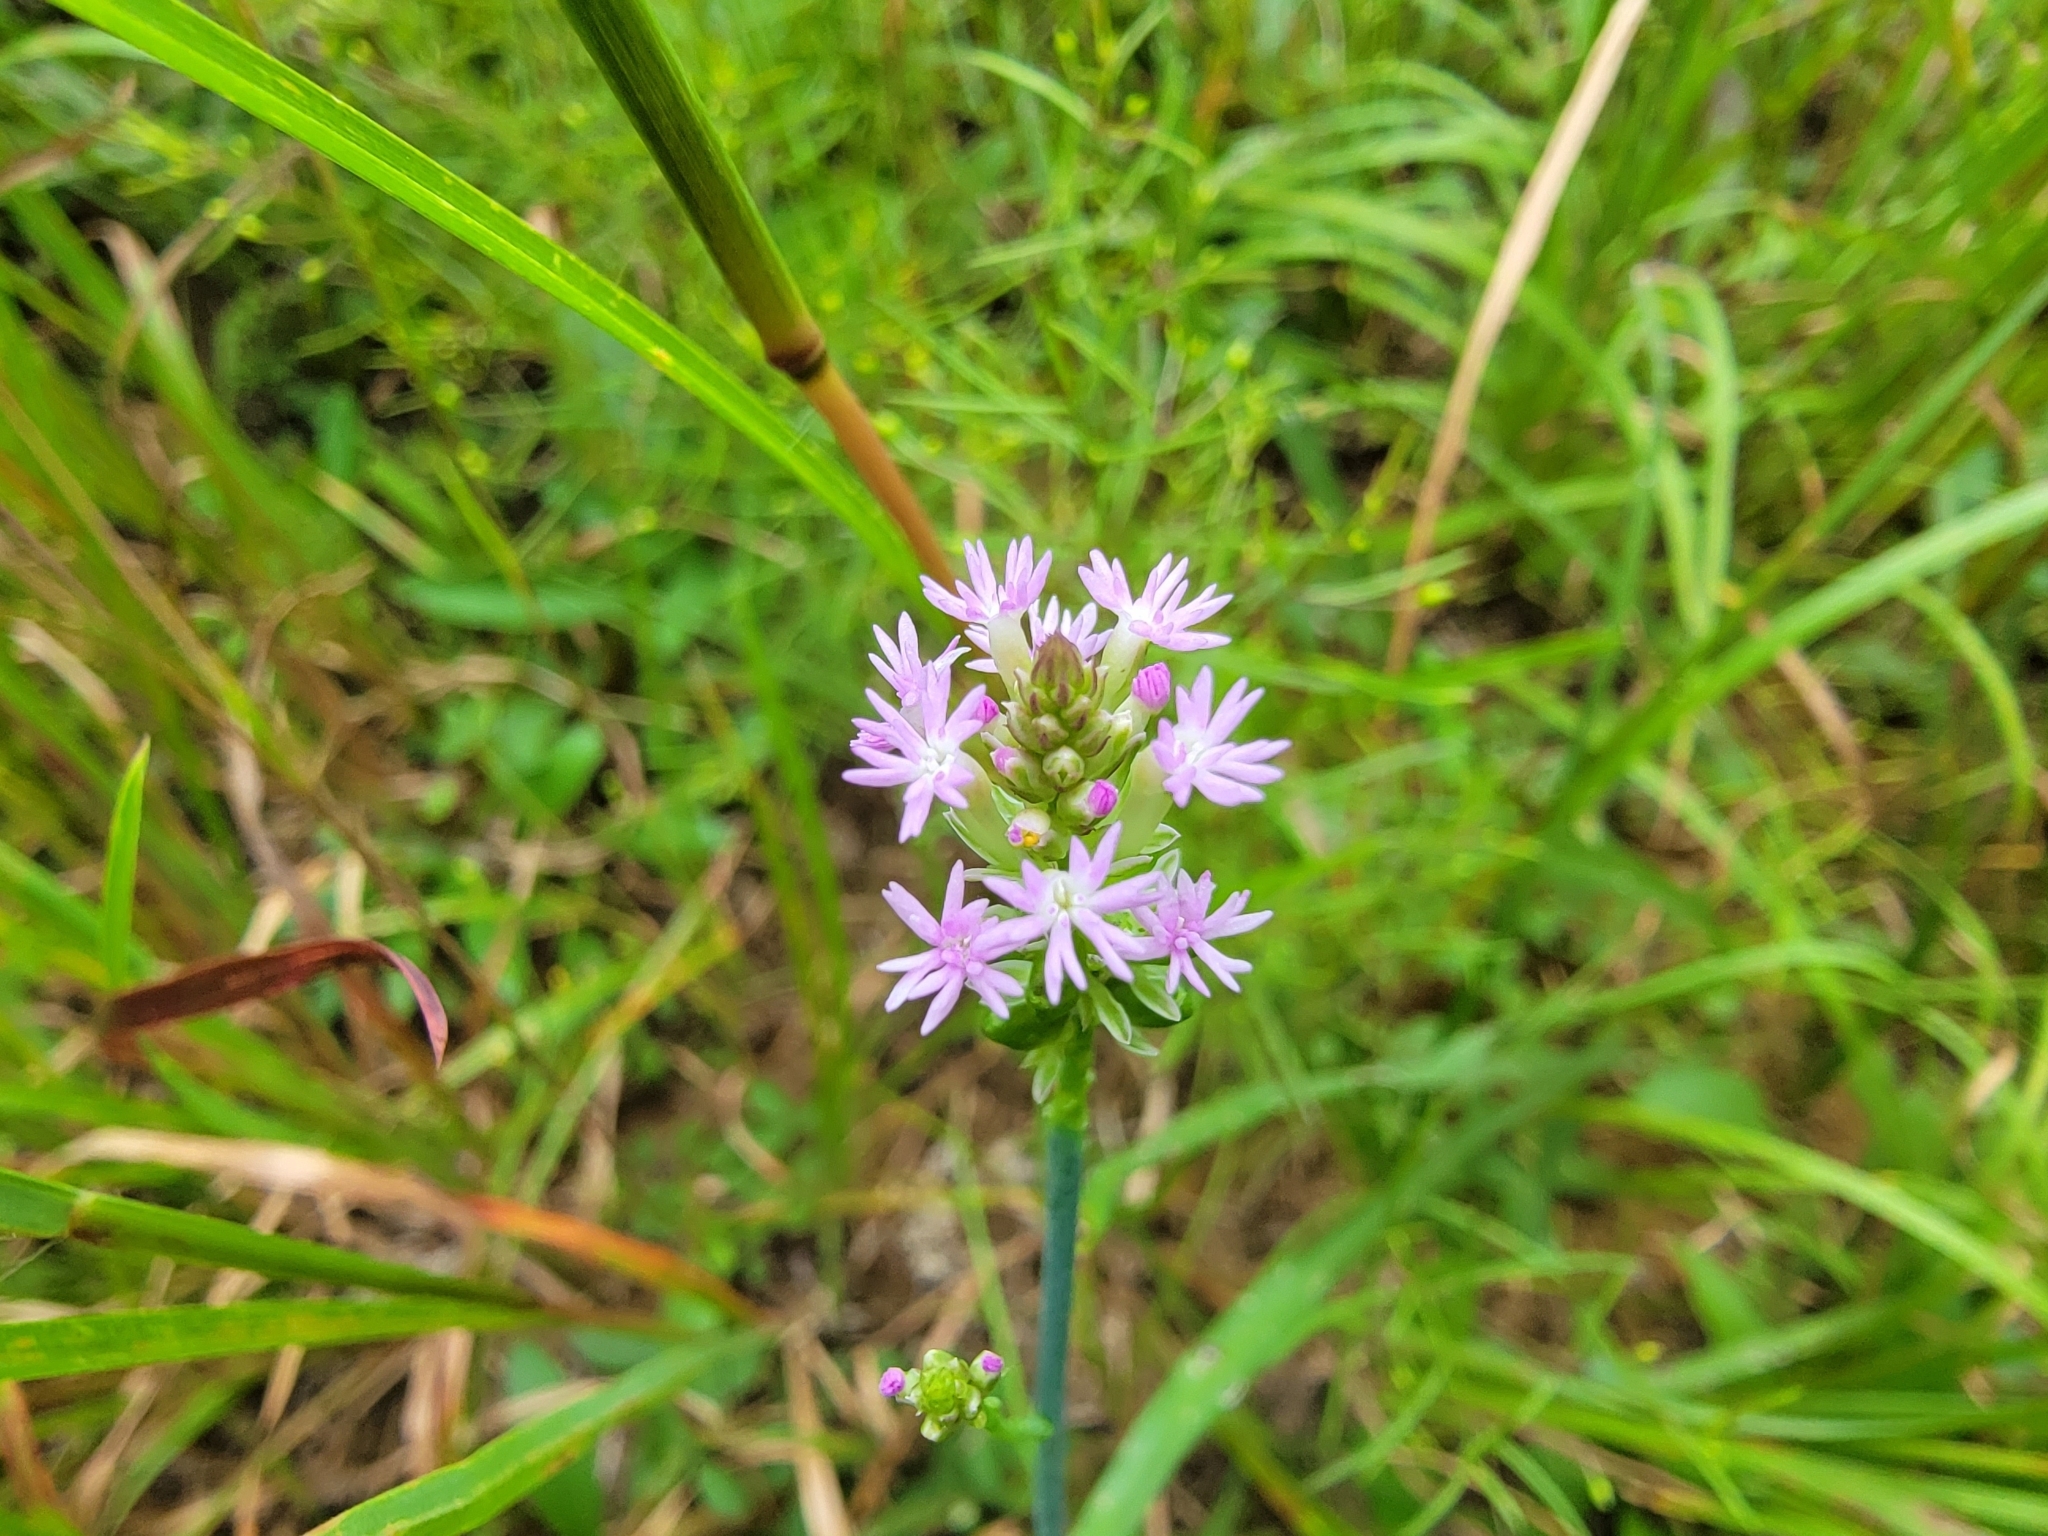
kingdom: Plantae
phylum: Tracheophyta
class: Magnoliopsida
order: Fabales
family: Polygalaceae
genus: Polygala
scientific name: Polygala incarnata
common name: Pink milkwort
